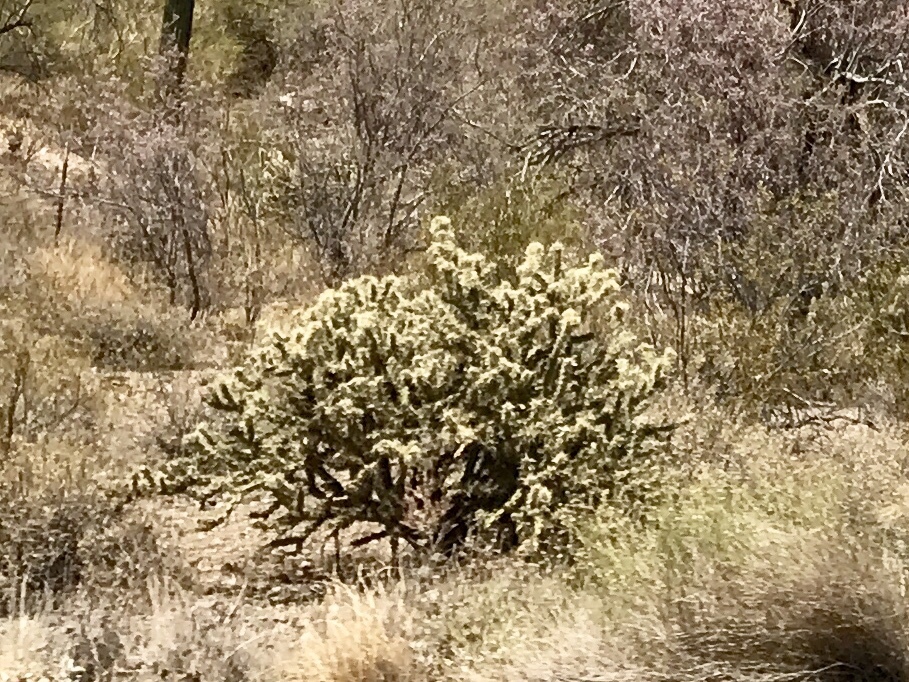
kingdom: Plantae
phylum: Tracheophyta
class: Magnoliopsida
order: Caryophyllales
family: Cactaceae
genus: Cylindropuntia
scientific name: Cylindropuntia acanthocarpa
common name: Buckhorn cholla
